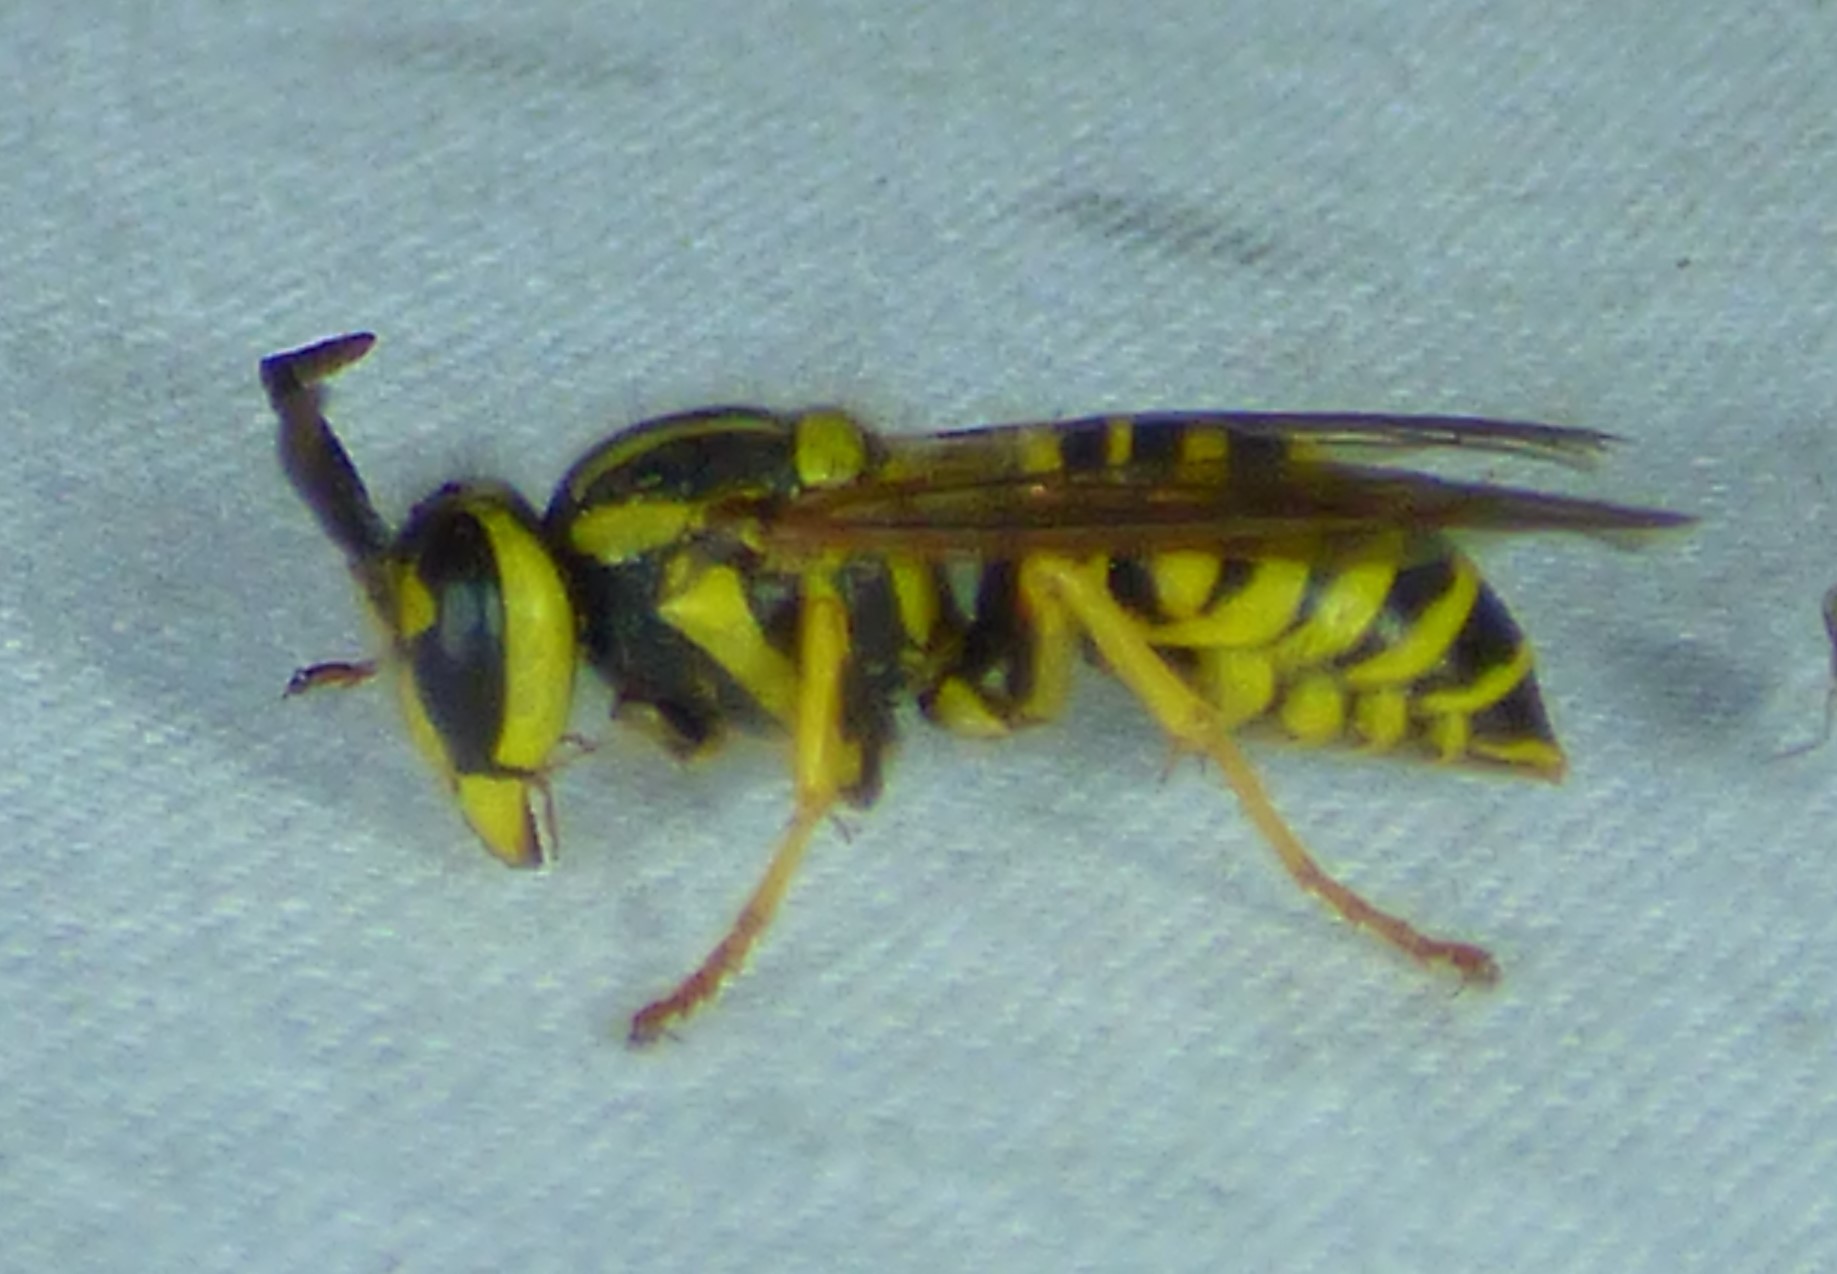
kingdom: Animalia
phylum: Arthropoda
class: Insecta
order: Hymenoptera
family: Vespidae
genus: Vespula
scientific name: Vespula squamosa
